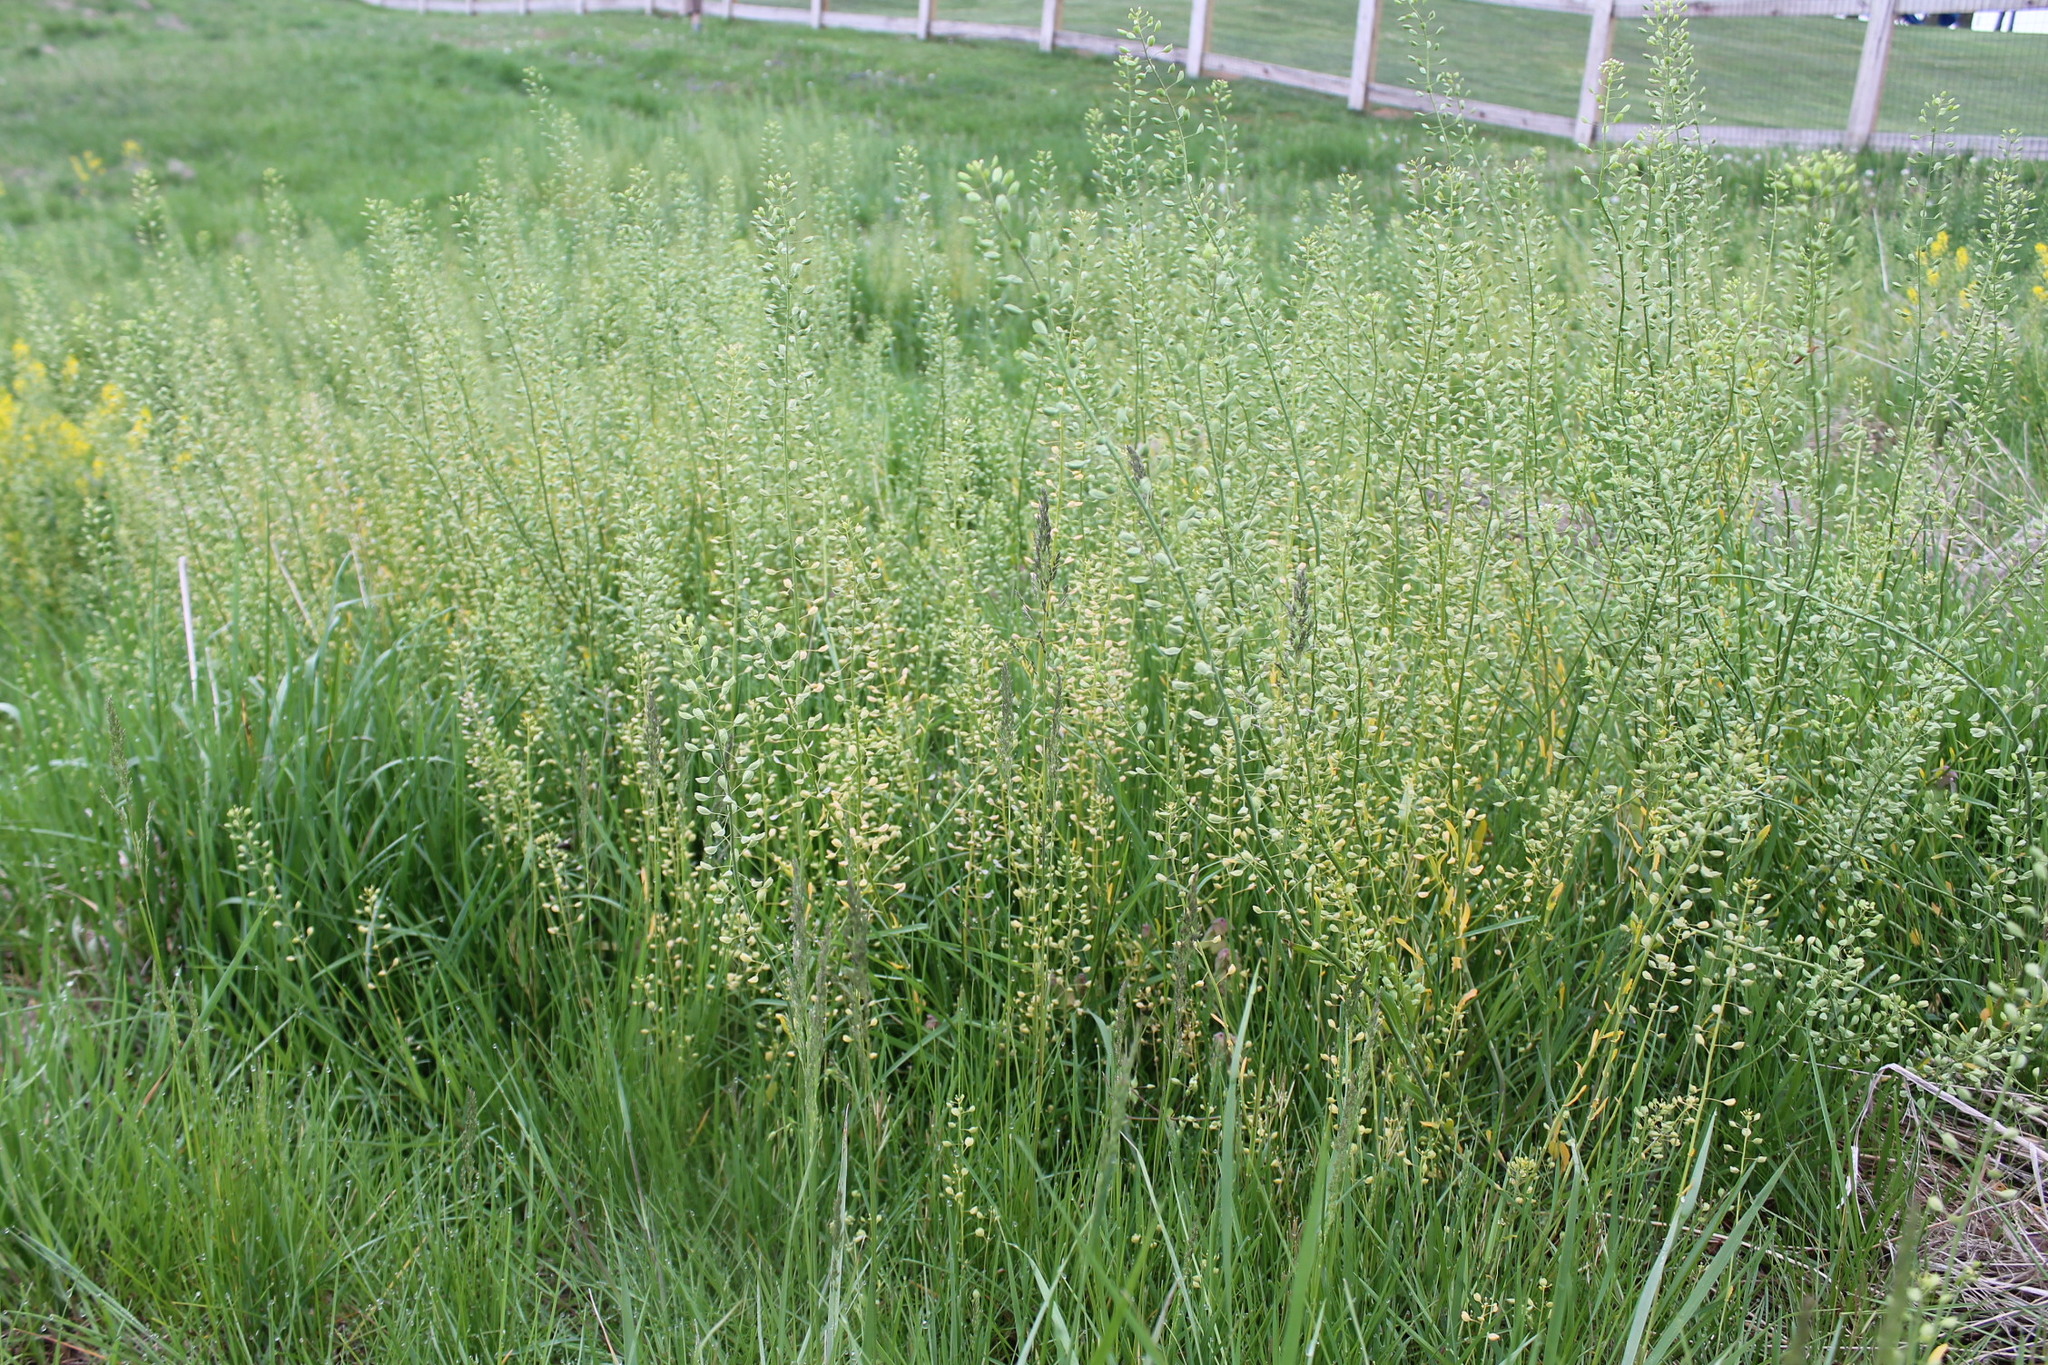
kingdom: Plantae
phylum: Tracheophyta
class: Magnoliopsida
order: Brassicales
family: Brassicaceae
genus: Mummenhoffia
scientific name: Mummenhoffia alliacea
